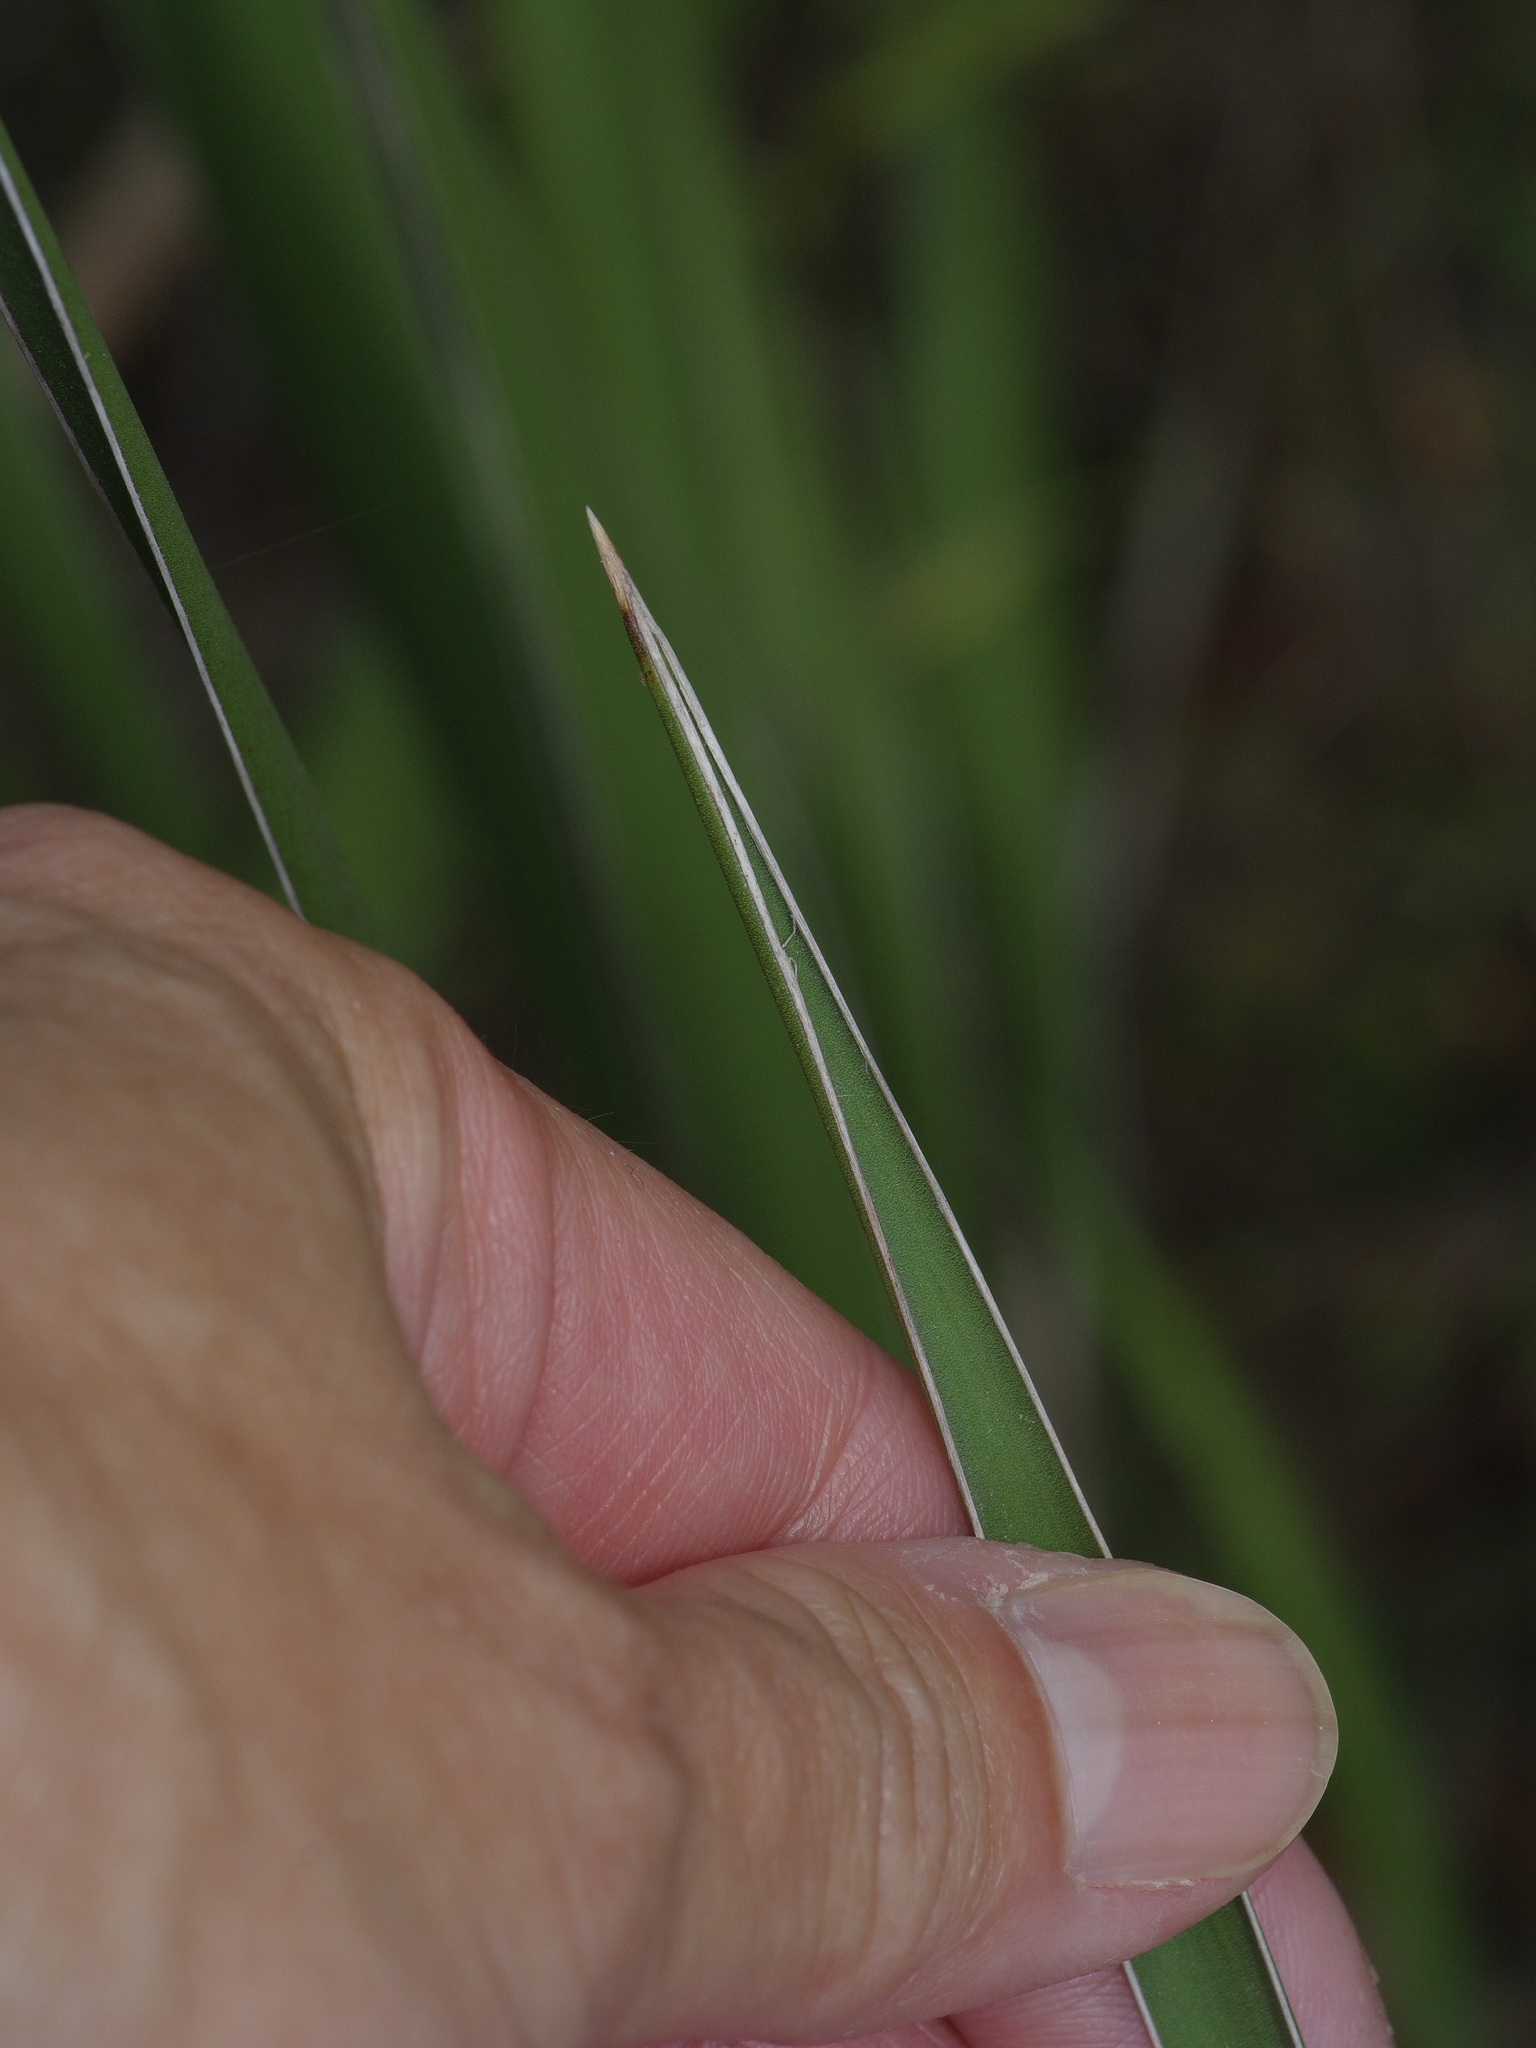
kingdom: Plantae
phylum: Tracheophyta
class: Liliopsida
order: Asparagales
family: Asparagaceae
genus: Yucca
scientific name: Yucca flaccida
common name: Adam's-needle
